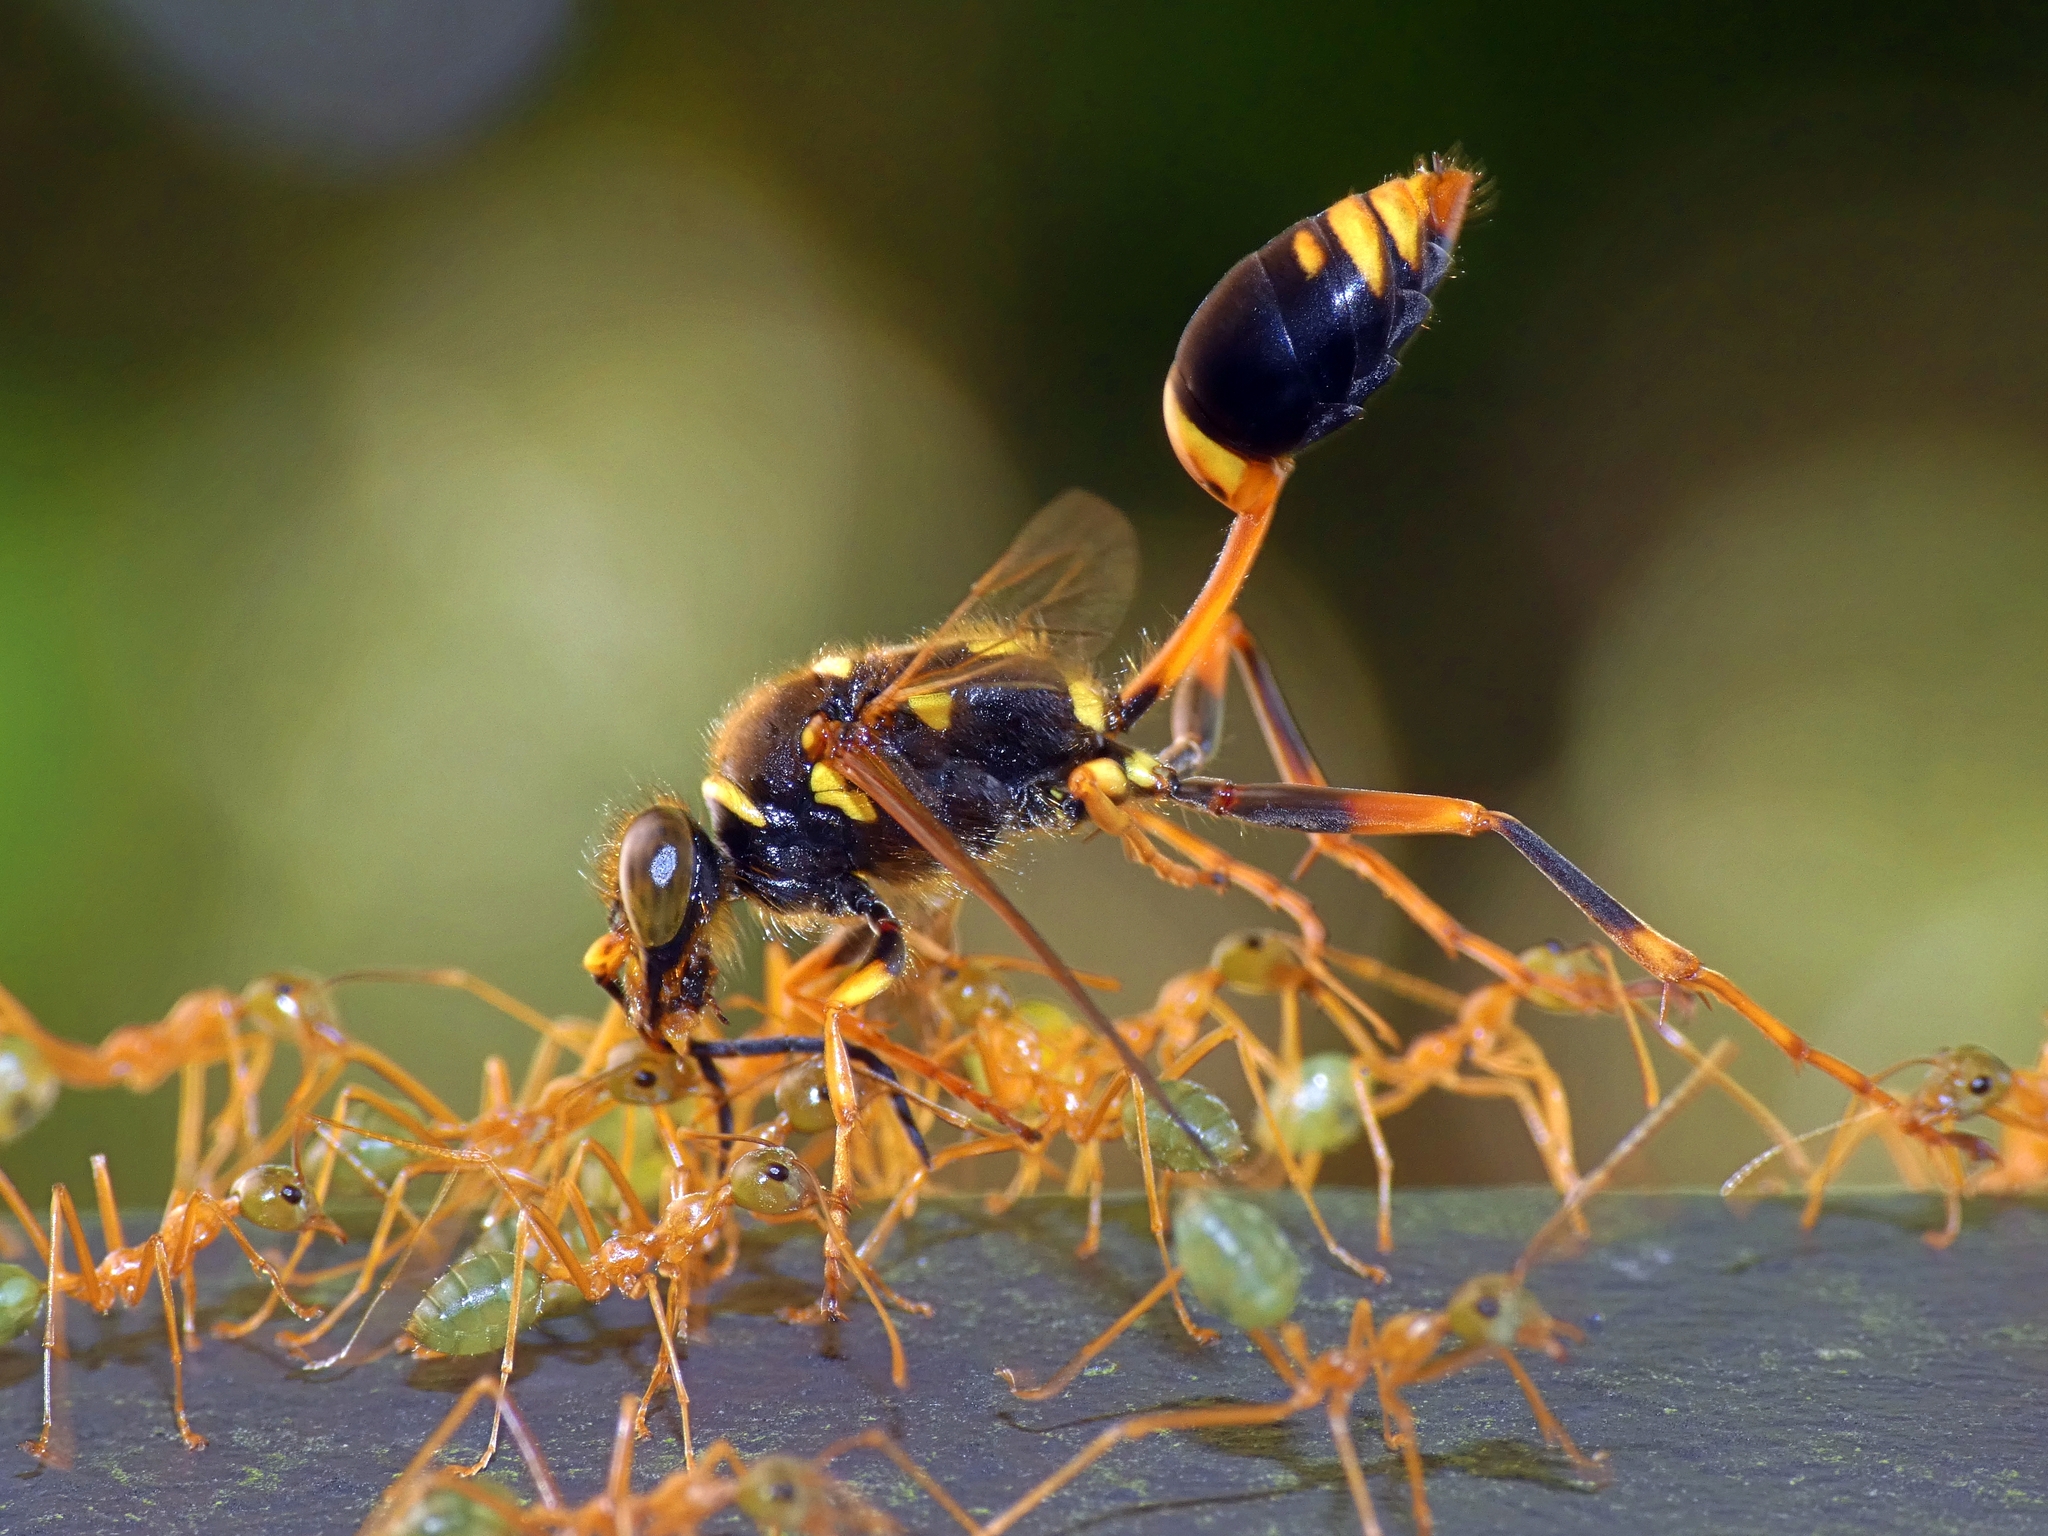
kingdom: Animalia
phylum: Arthropoda
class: Insecta
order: Hymenoptera
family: Sphecidae
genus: Sceliphron
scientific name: Sceliphron formosum
